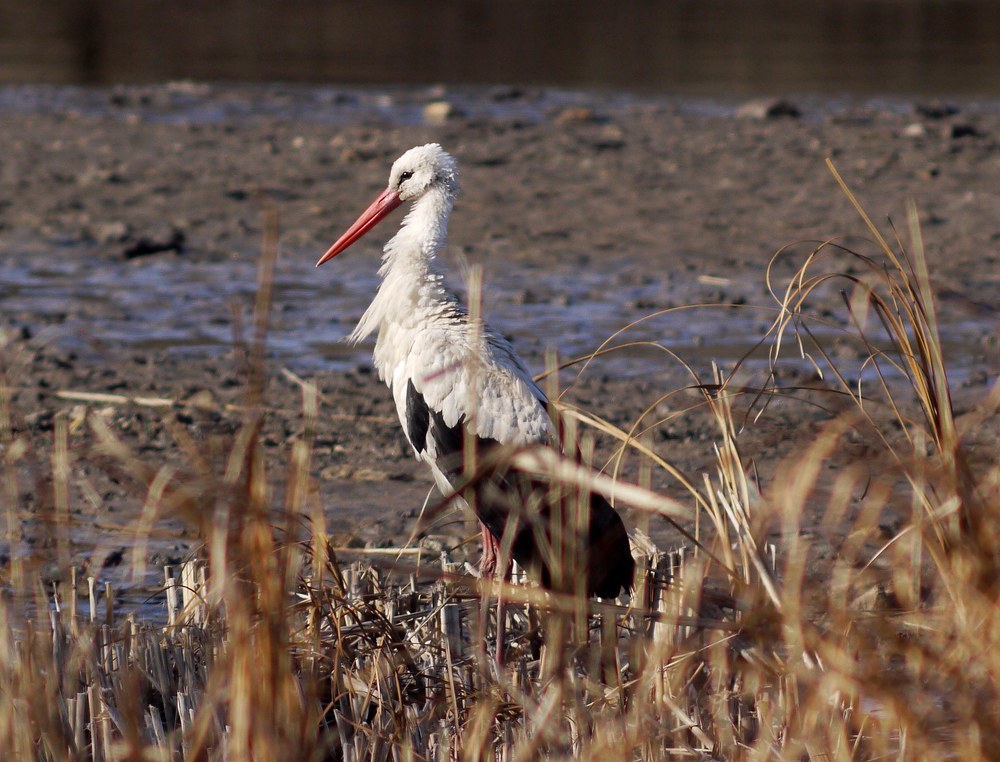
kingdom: Animalia
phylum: Chordata
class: Aves
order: Ciconiiformes
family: Ciconiidae
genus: Ciconia
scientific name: Ciconia ciconia
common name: White stork
